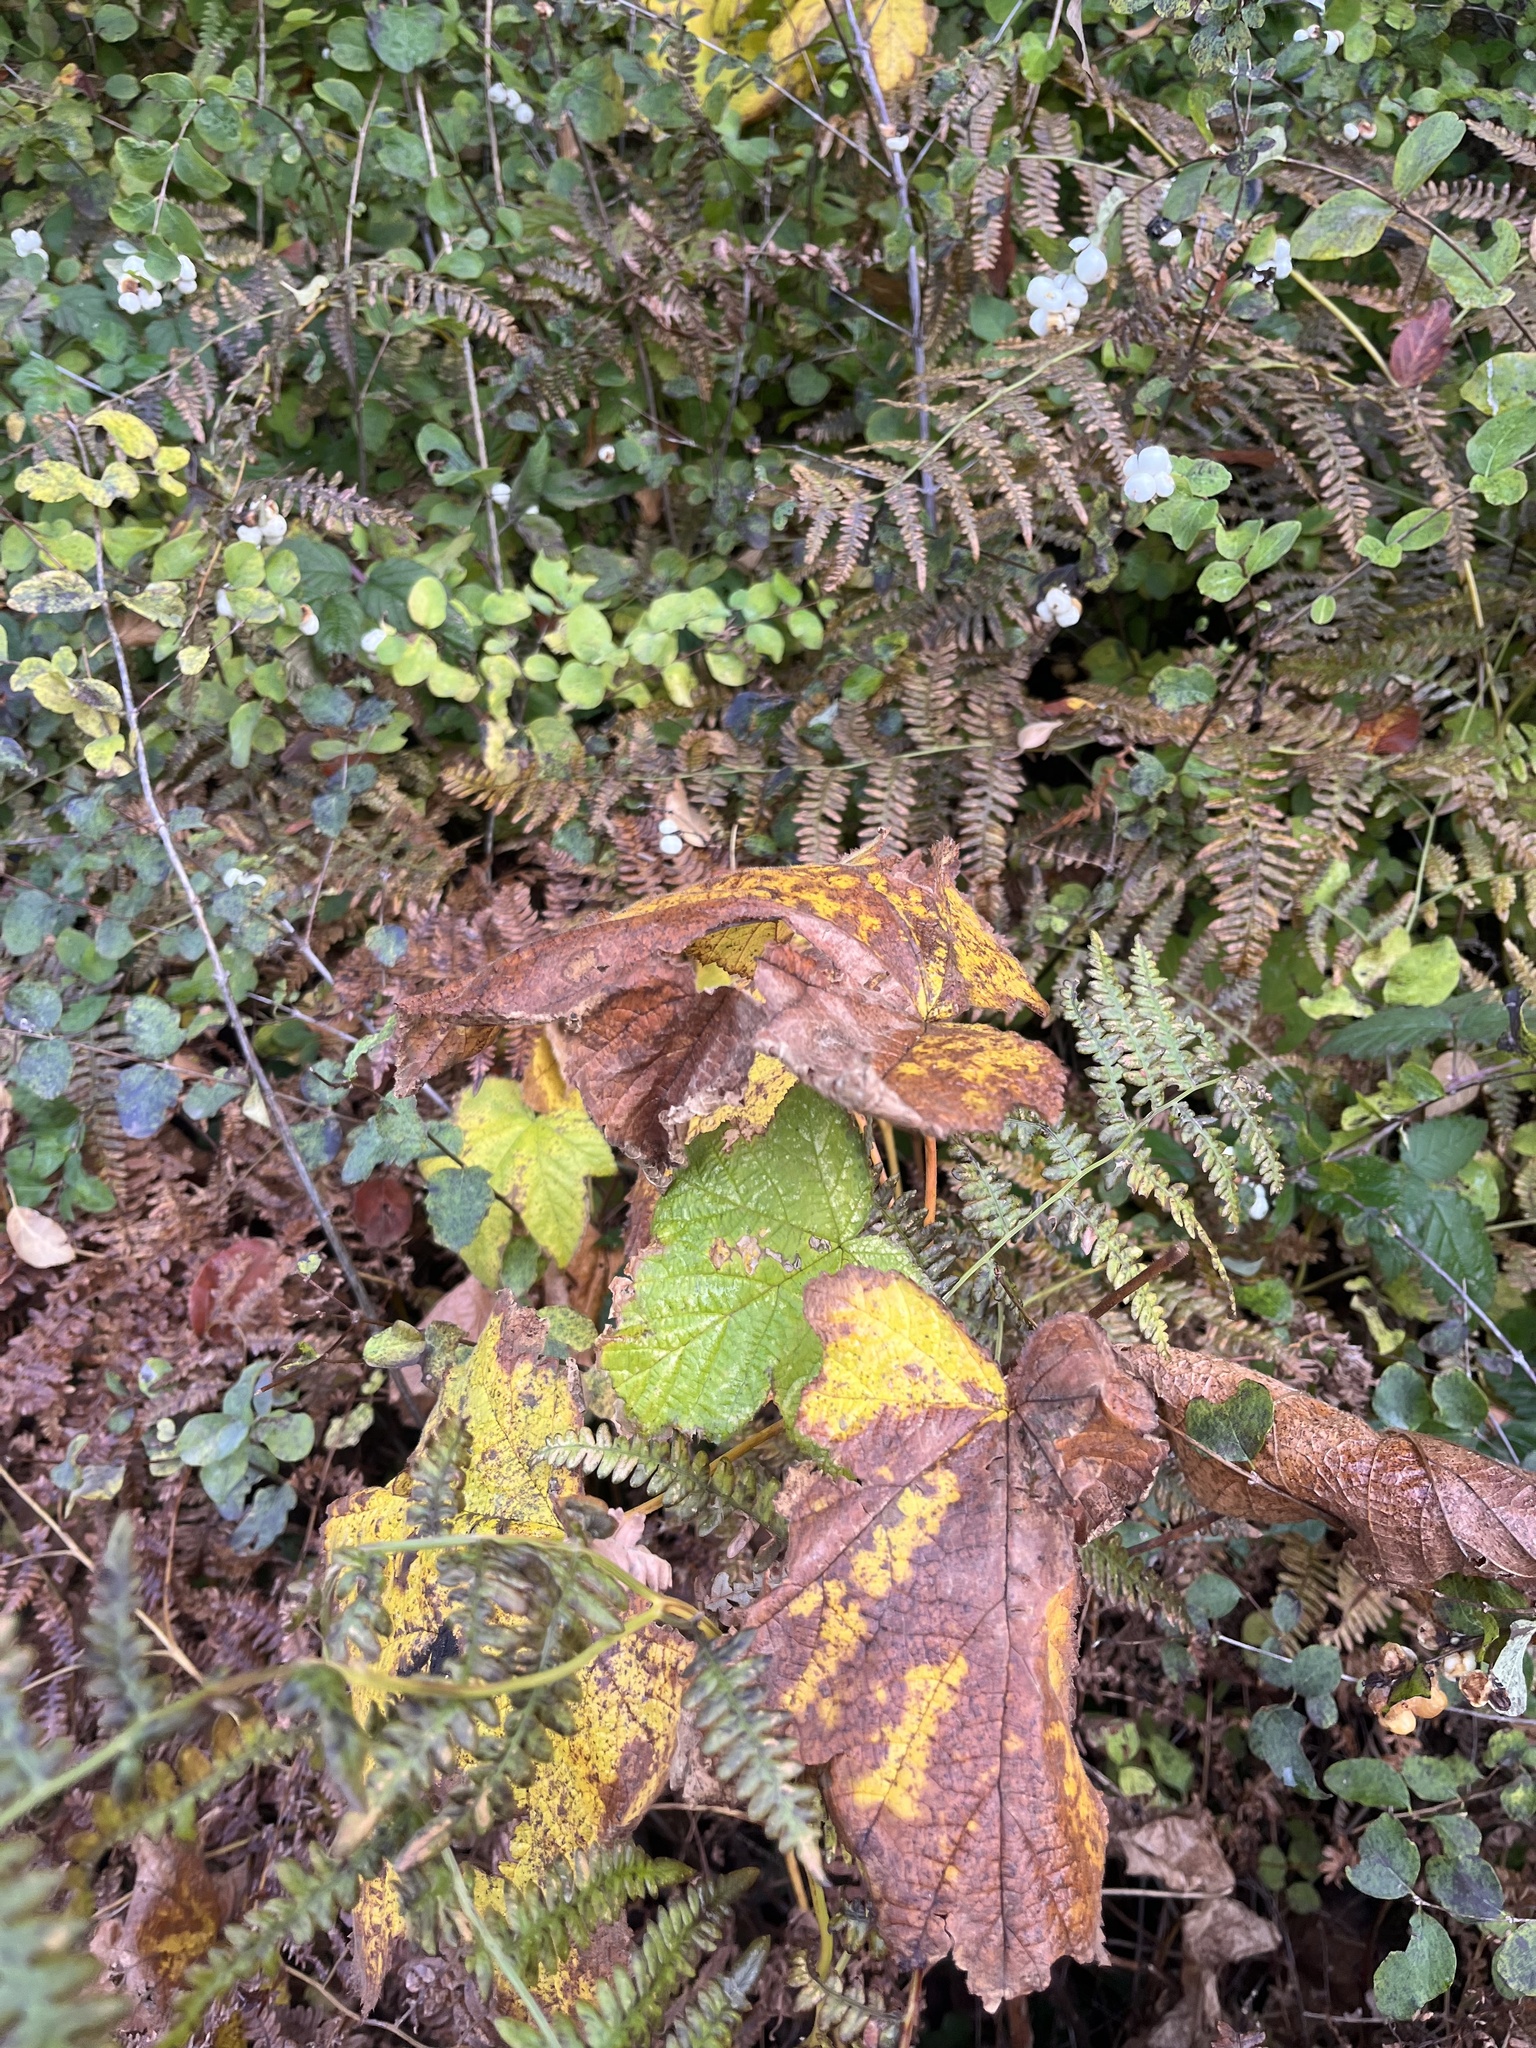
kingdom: Plantae
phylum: Tracheophyta
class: Magnoliopsida
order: Rosales
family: Rosaceae
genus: Rubus
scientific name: Rubus parviflorus
